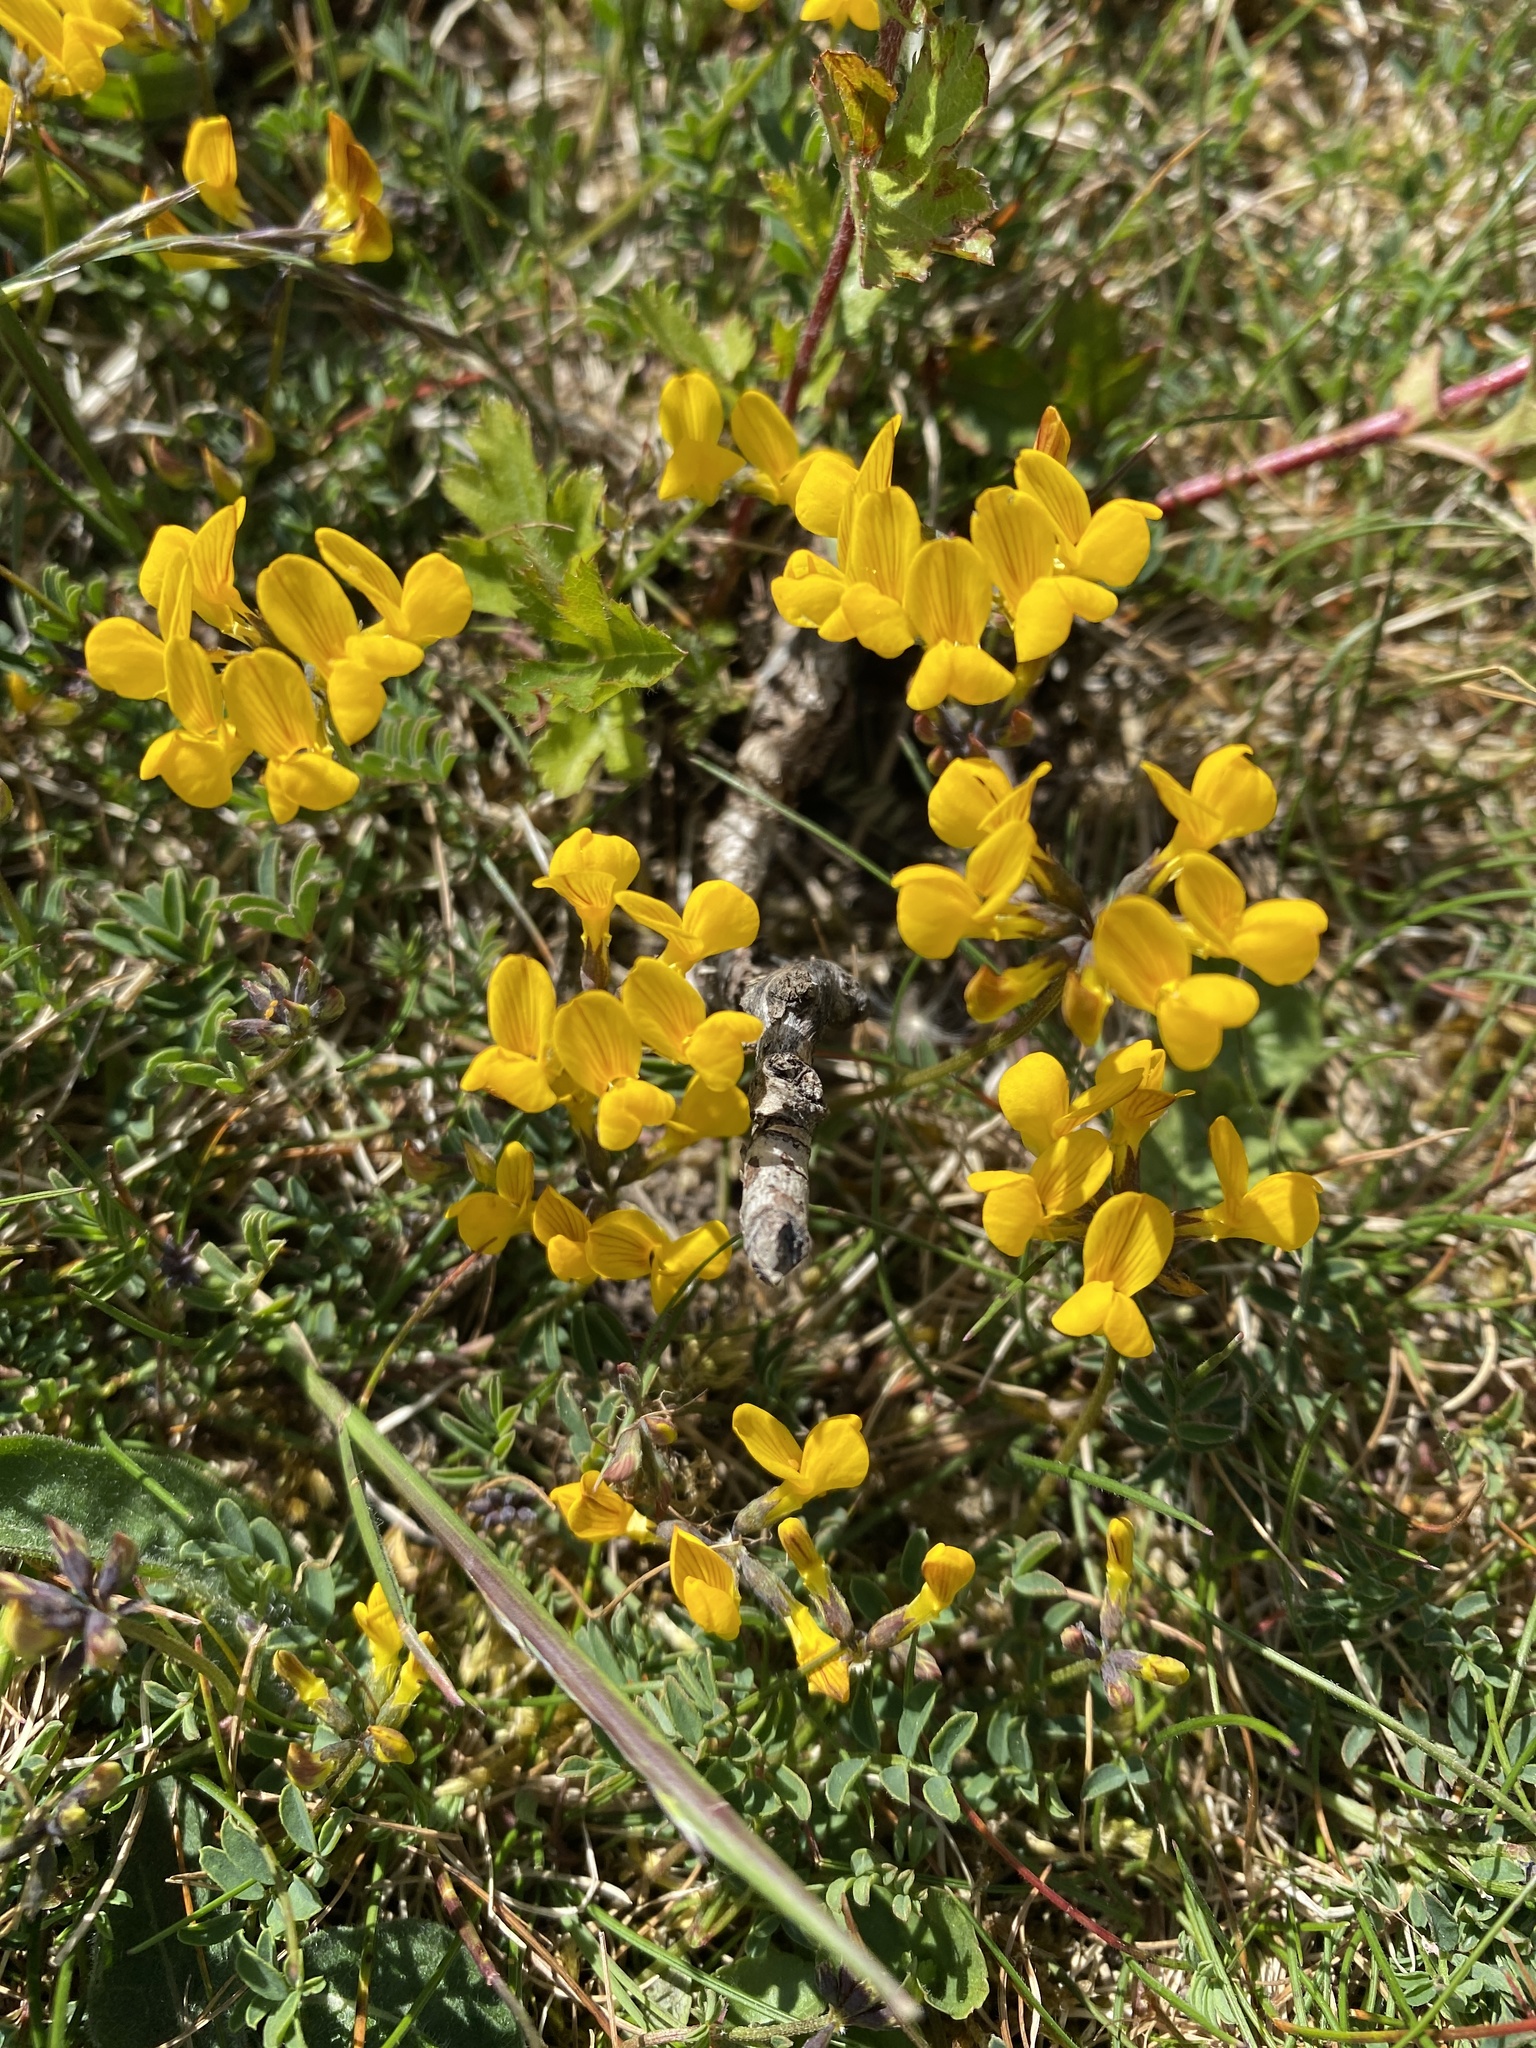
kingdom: Plantae
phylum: Tracheophyta
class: Magnoliopsida
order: Fabales
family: Fabaceae
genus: Hippocrepis
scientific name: Hippocrepis comosa
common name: Horseshoe vetch
